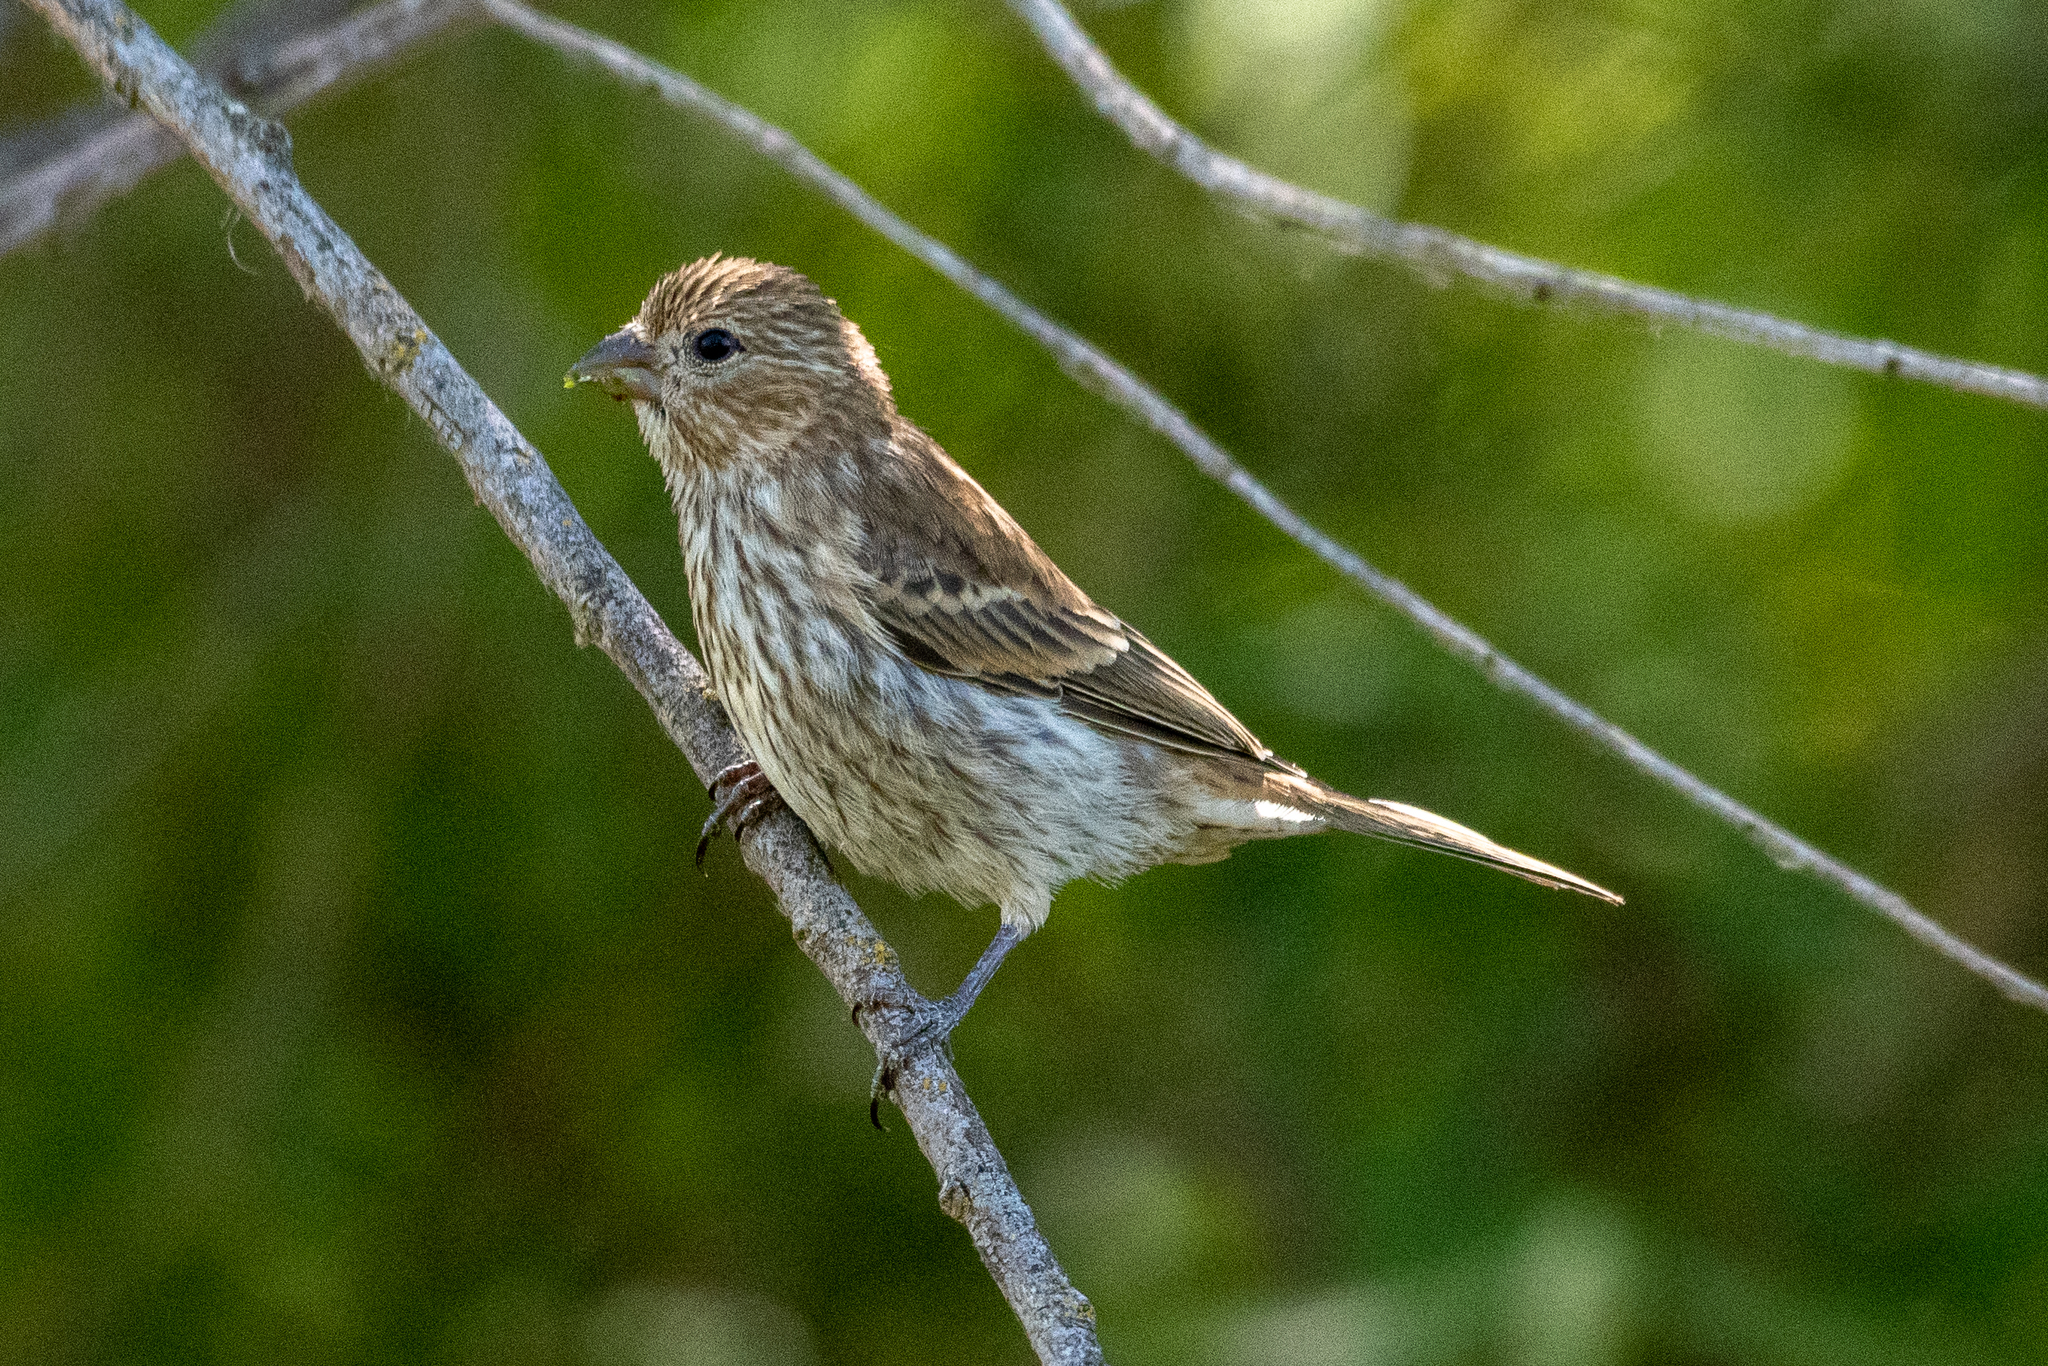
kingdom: Animalia
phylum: Chordata
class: Aves
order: Passeriformes
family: Fringillidae
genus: Haemorhous
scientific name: Haemorhous mexicanus
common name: House finch
